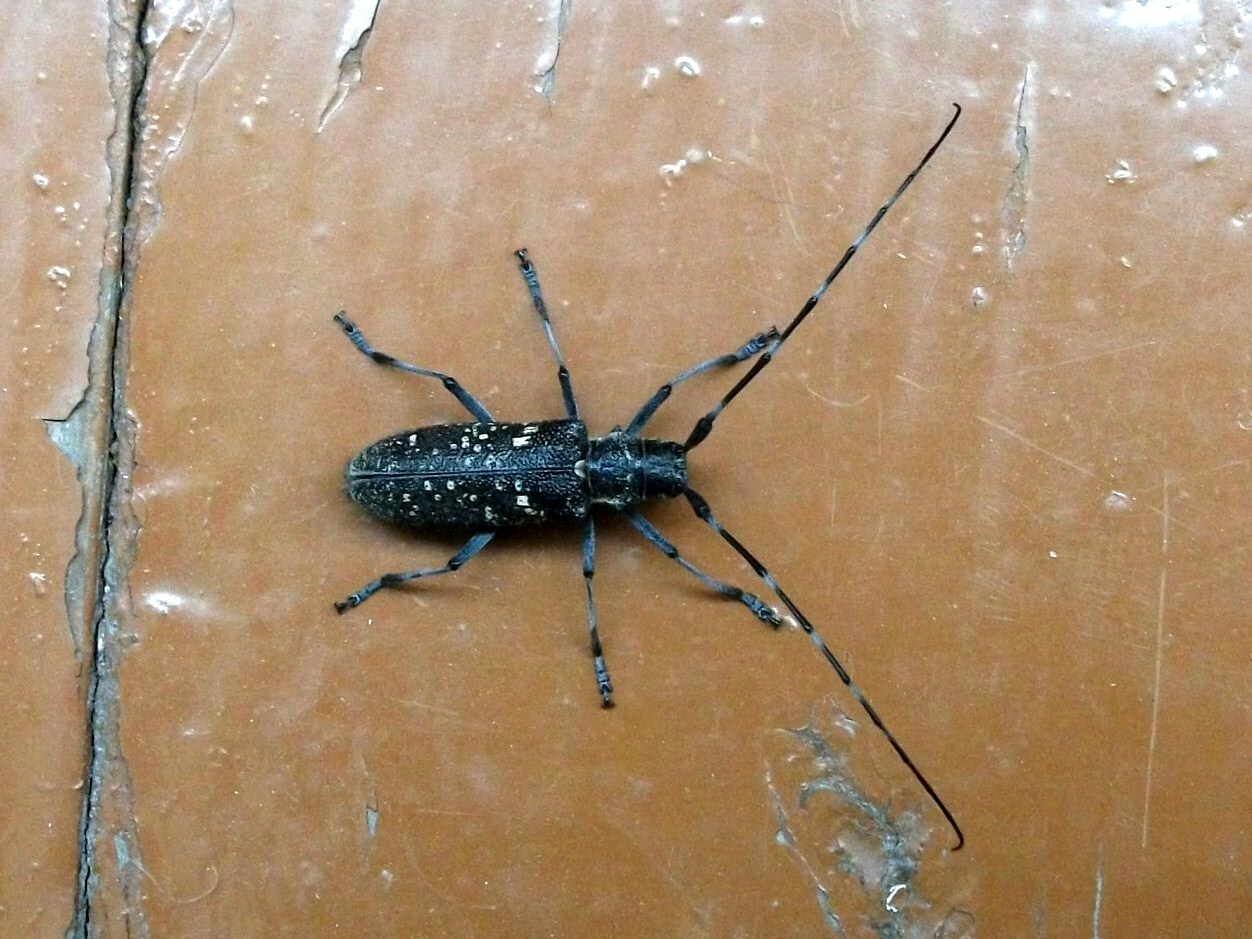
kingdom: Animalia
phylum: Arthropoda
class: Insecta
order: Coleoptera
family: Cerambycidae
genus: Monochamus
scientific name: Monochamus sutor
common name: Pine sawyer
